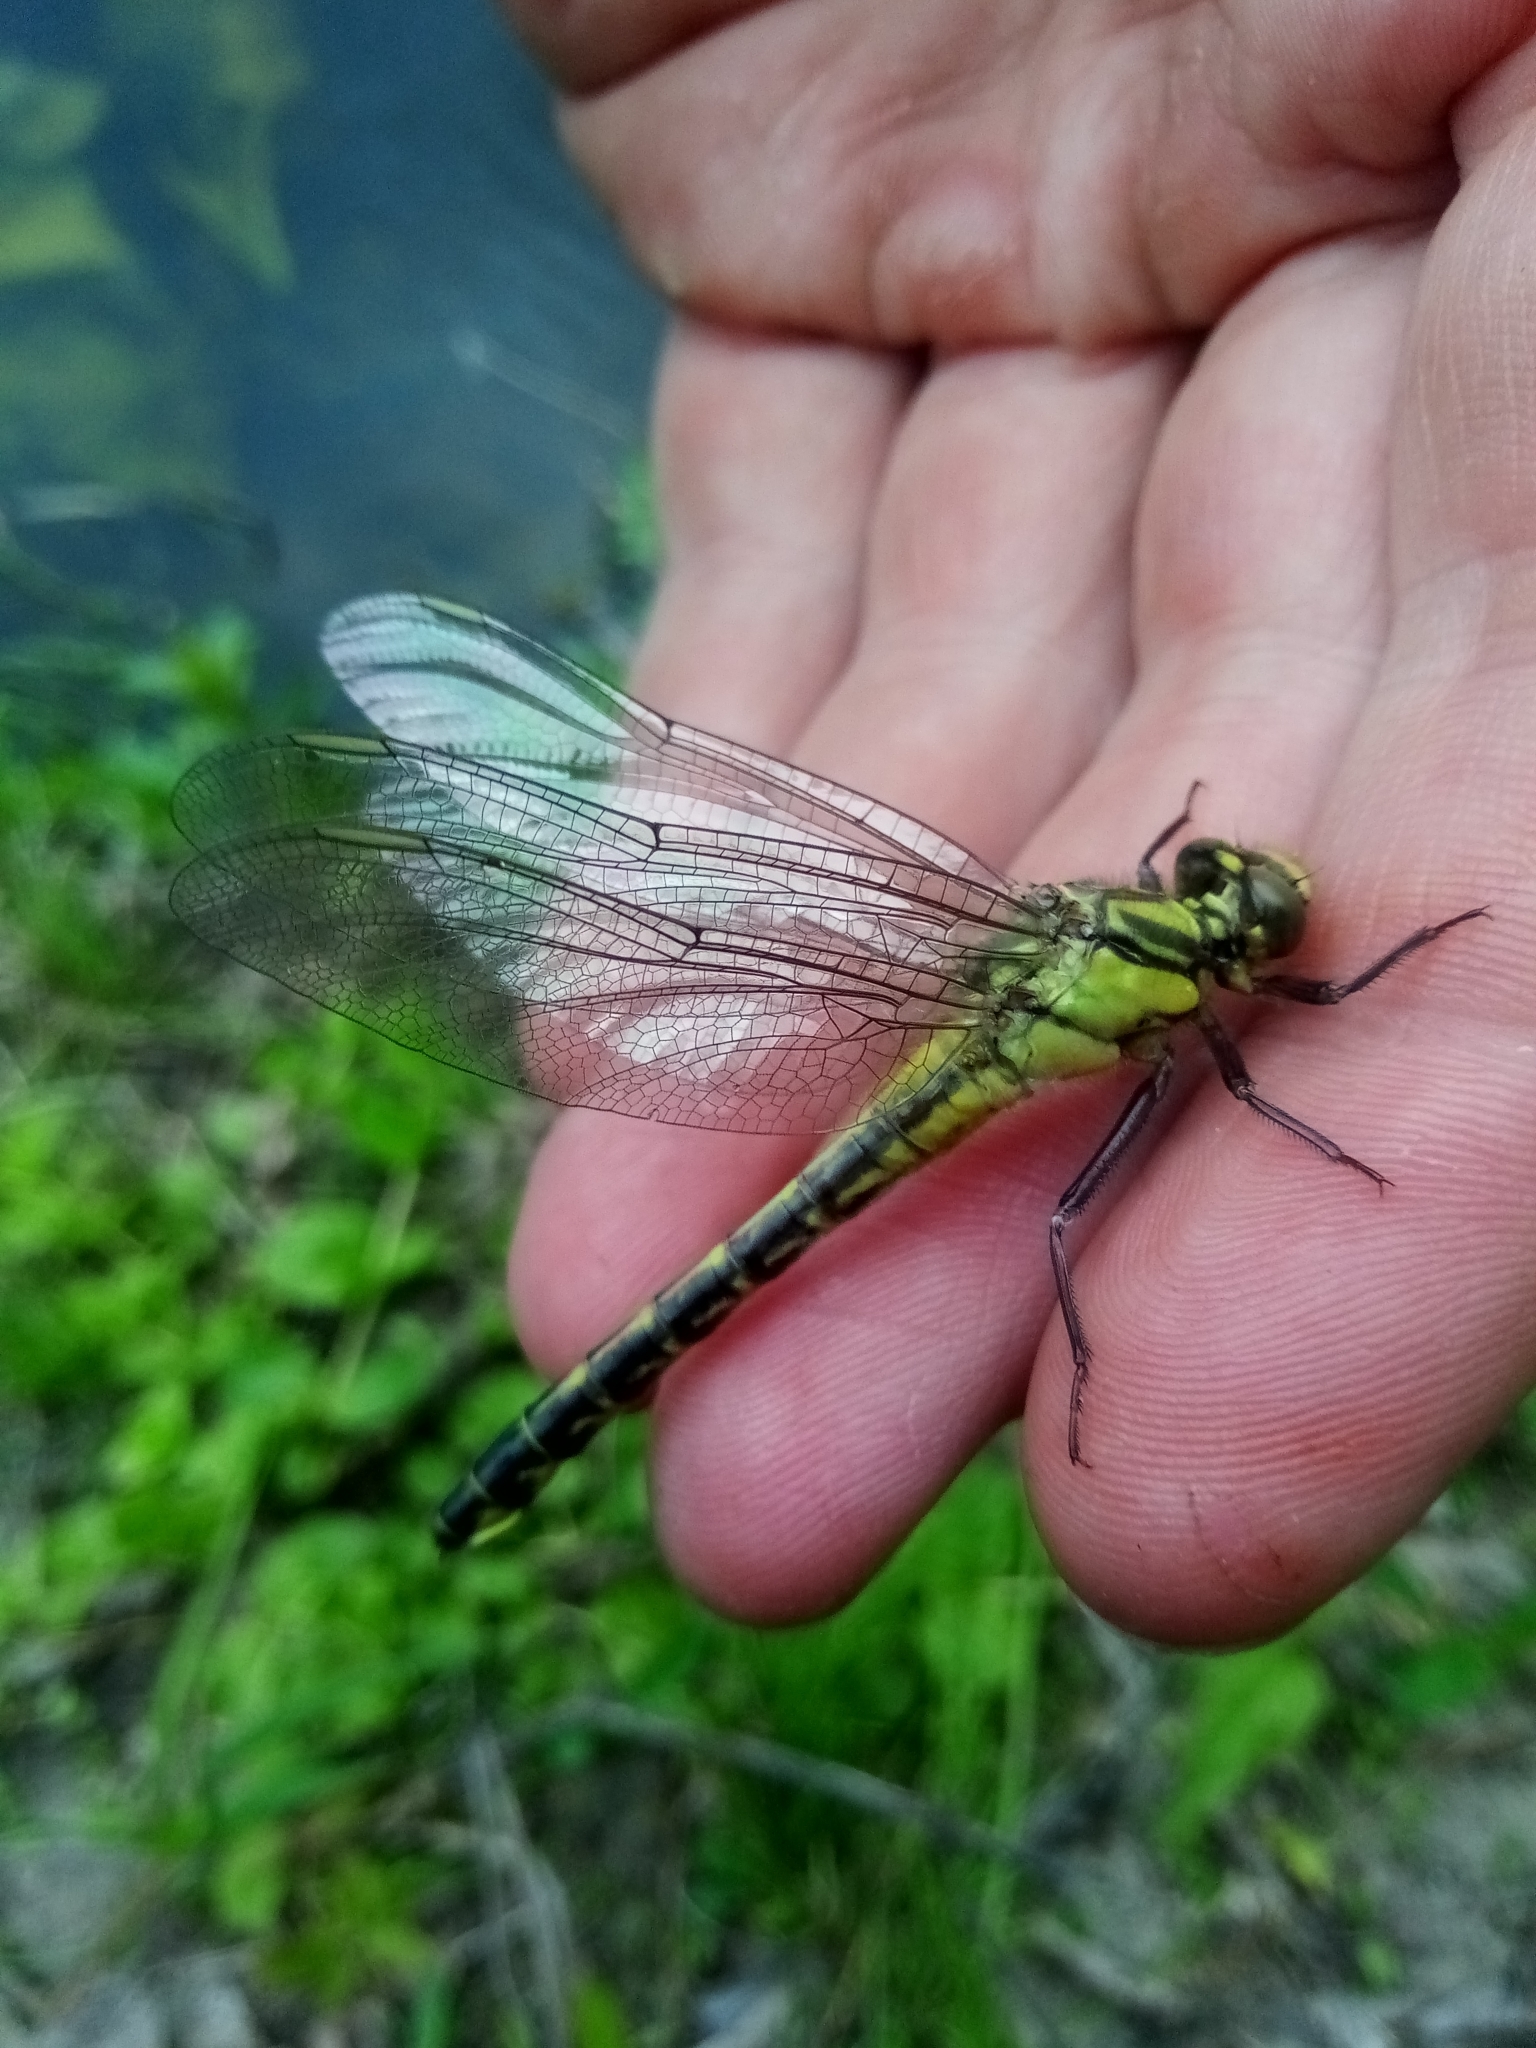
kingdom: Animalia
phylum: Arthropoda
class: Insecta
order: Odonata
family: Gomphidae
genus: Gomphus
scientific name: Gomphus vulgatissimus
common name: Club-tailed dragonfly
